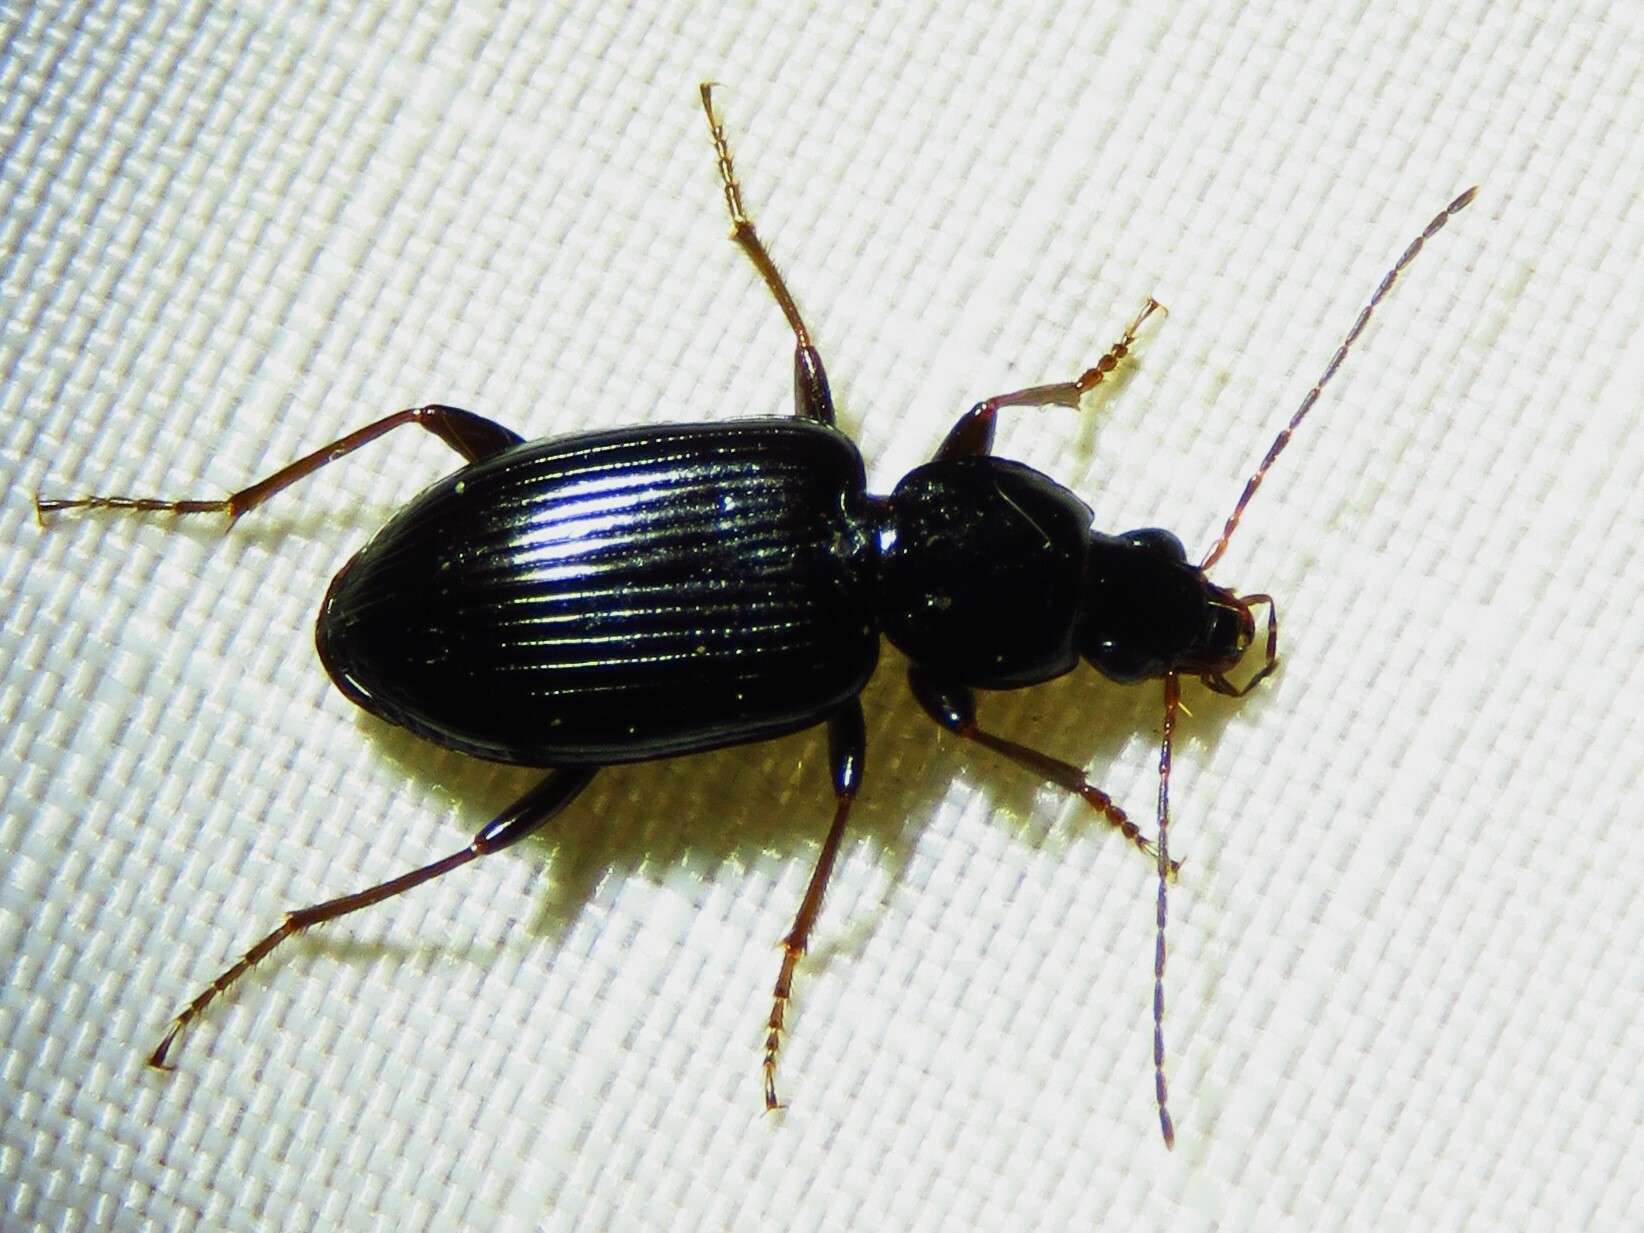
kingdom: Animalia
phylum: Arthropoda
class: Insecta
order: Coleoptera
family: Carabidae
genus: Agonum
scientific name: Agonum punctiforme
